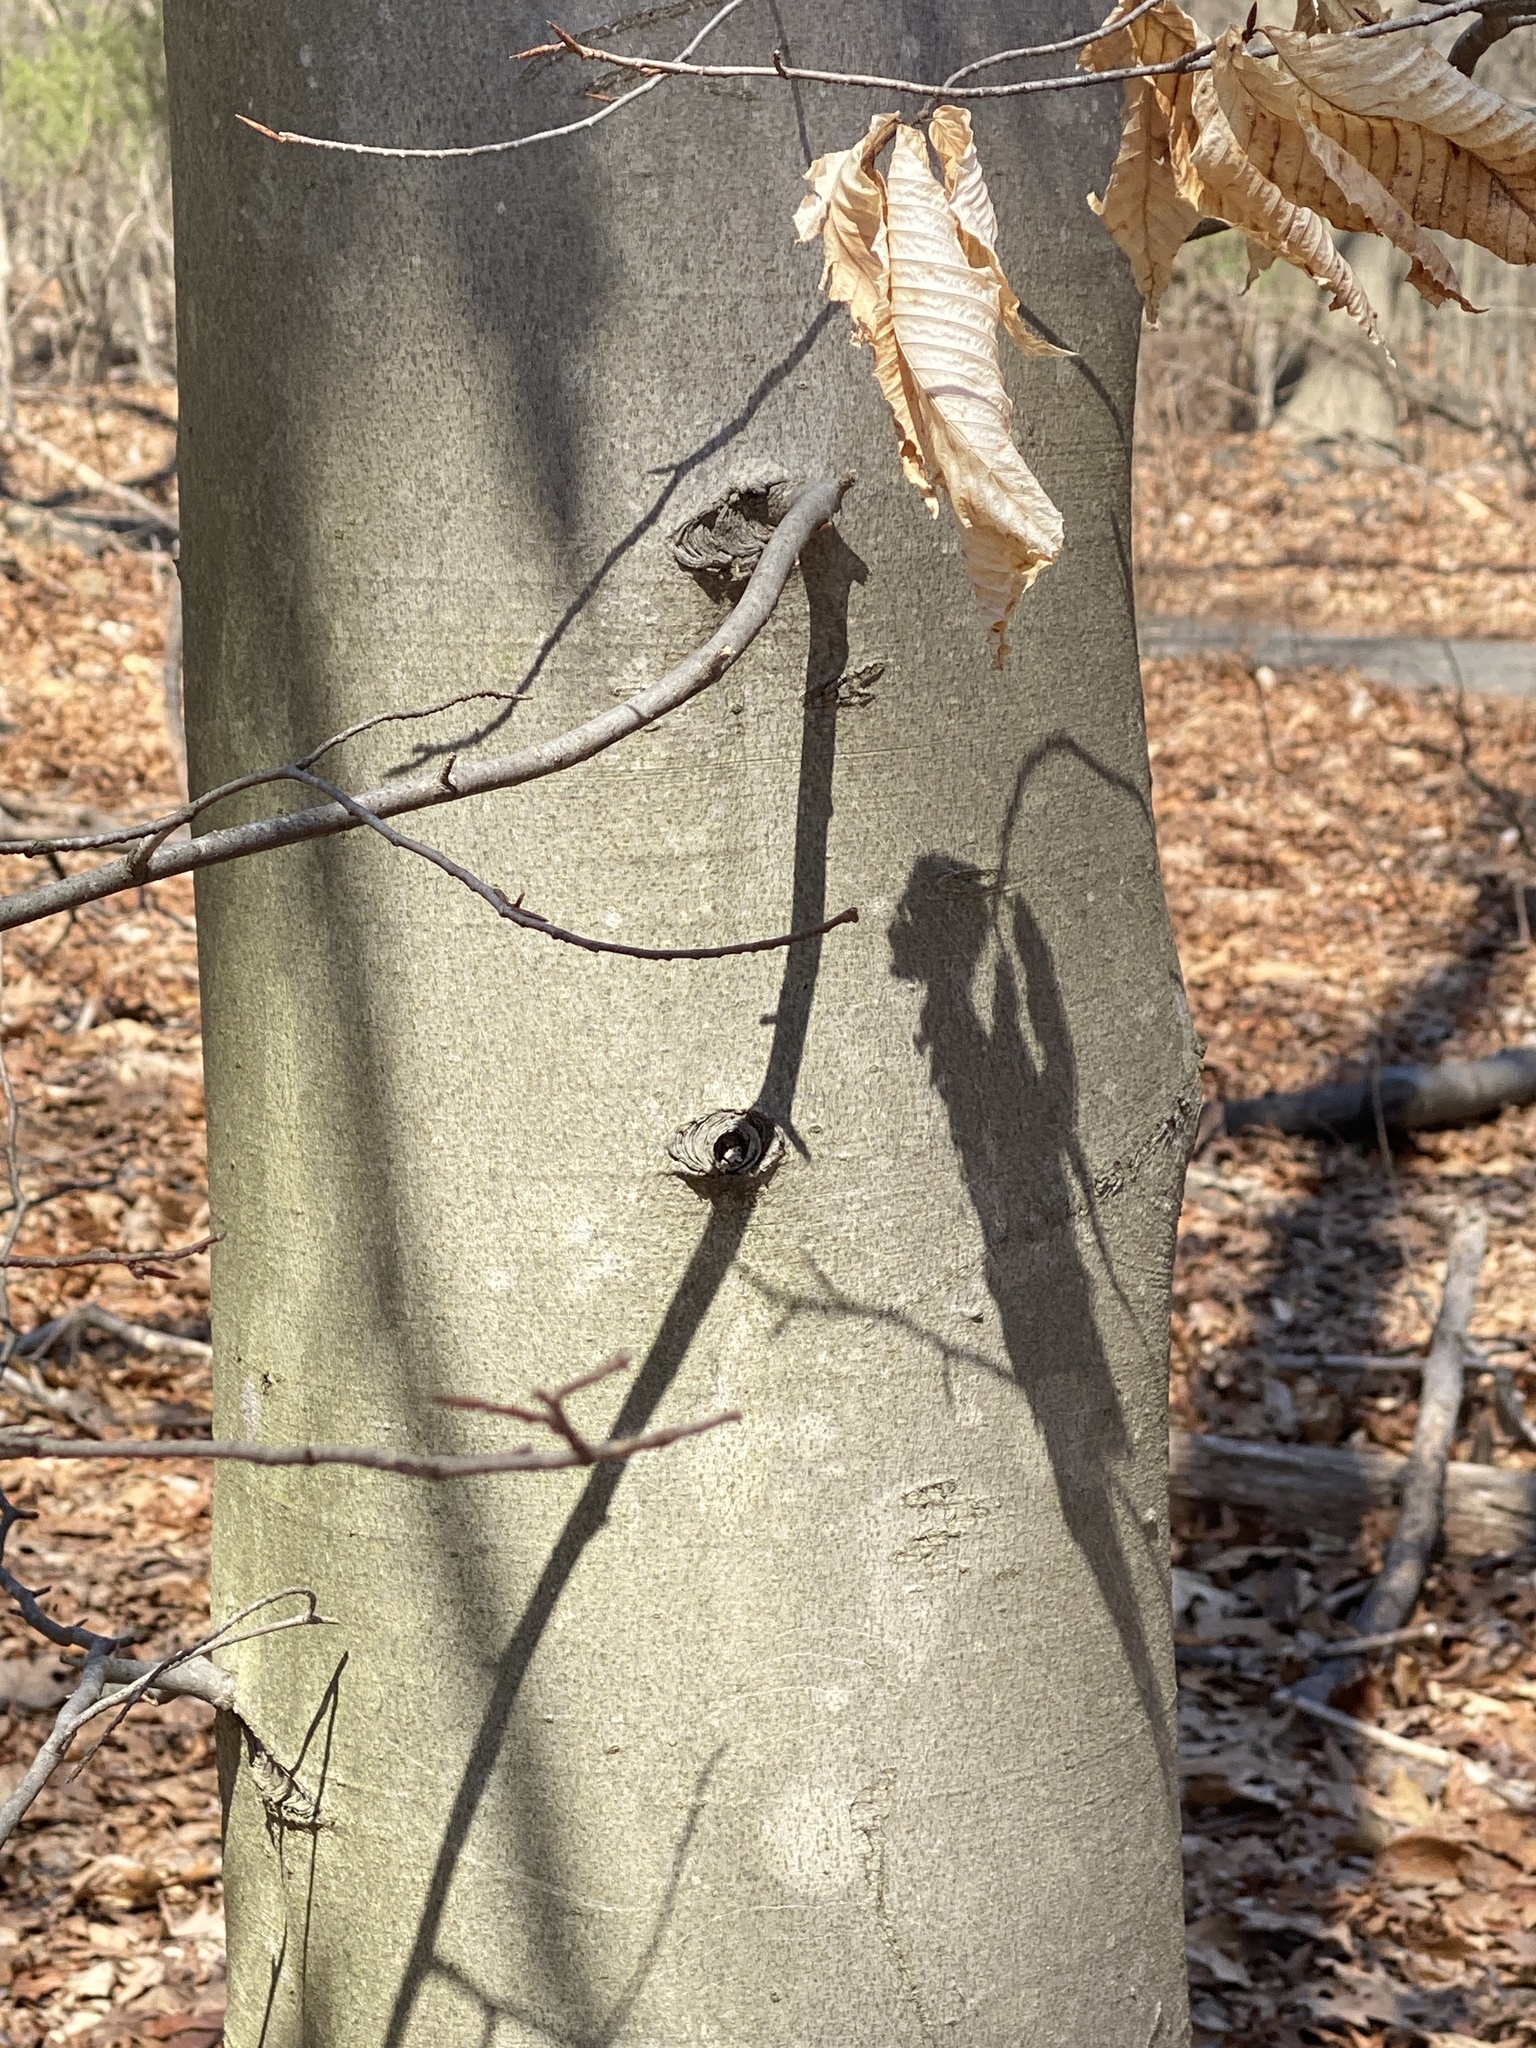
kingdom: Plantae
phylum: Tracheophyta
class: Magnoliopsida
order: Fagales
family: Fagaceae
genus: Fagus
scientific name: Fagus grandifolia
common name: American beech
